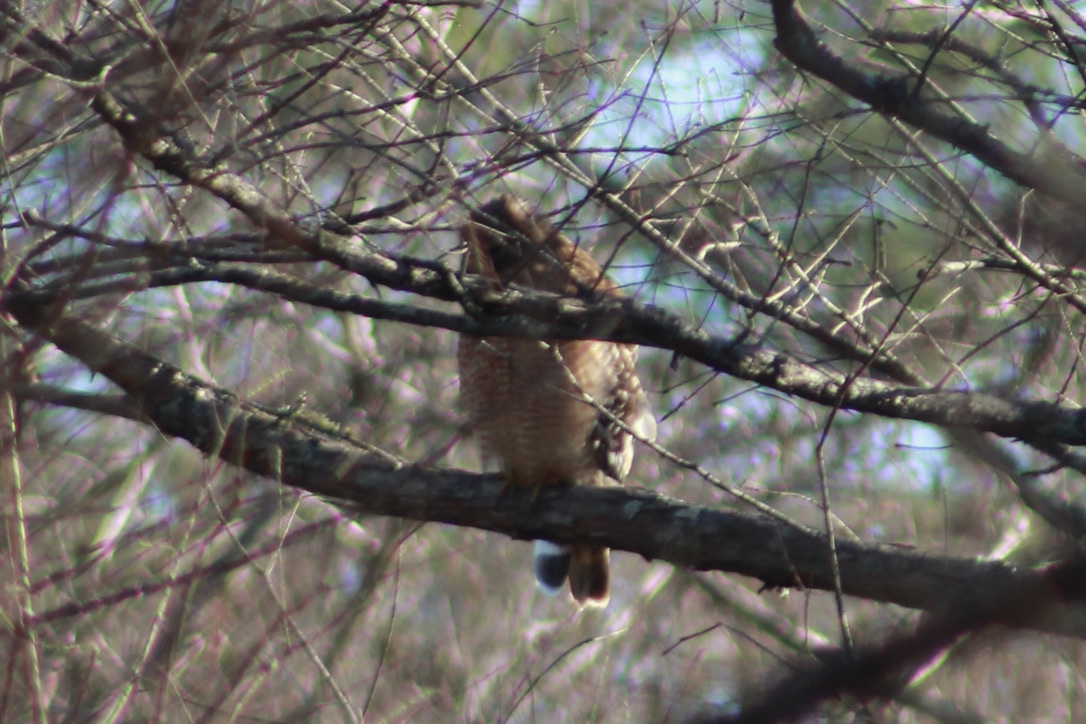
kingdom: Animalia
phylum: Chordata
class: Aves
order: Accipitriformes
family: Accipitridae
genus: Buteo
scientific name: Buteo lineatus
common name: Red-shouldered hawk
